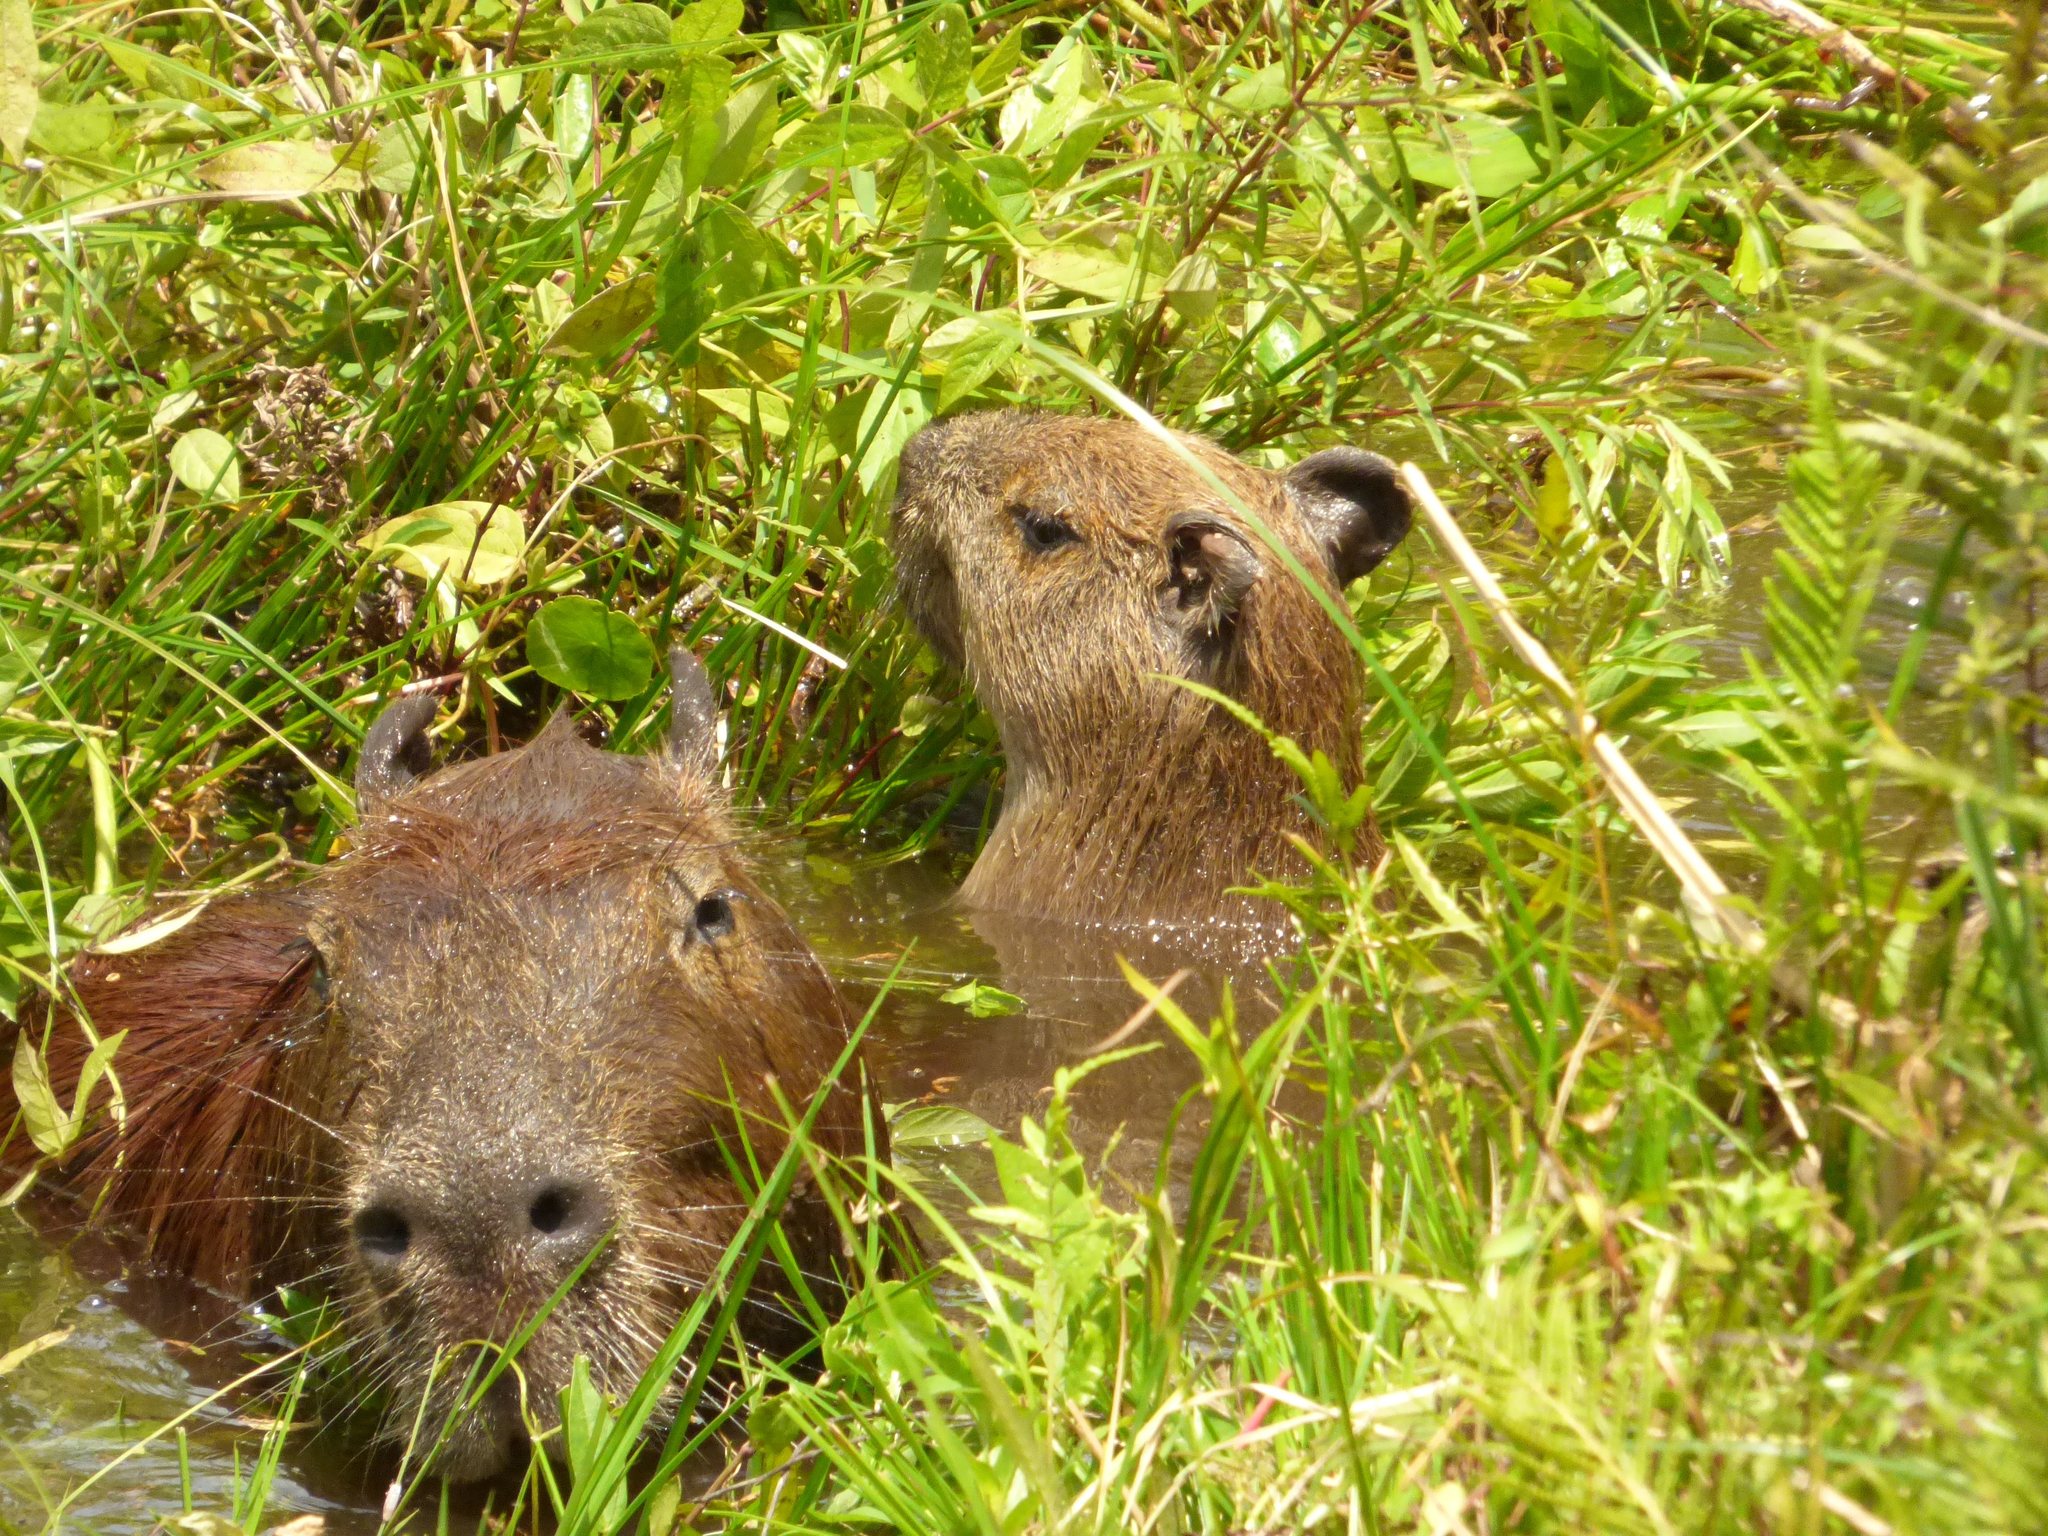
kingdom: Animalia
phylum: Chordata
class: Mammalia
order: Rodentia
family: Caviidae
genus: Hydrochoerus
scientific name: Hydrochoerus hydrochaeris
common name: Capybara
